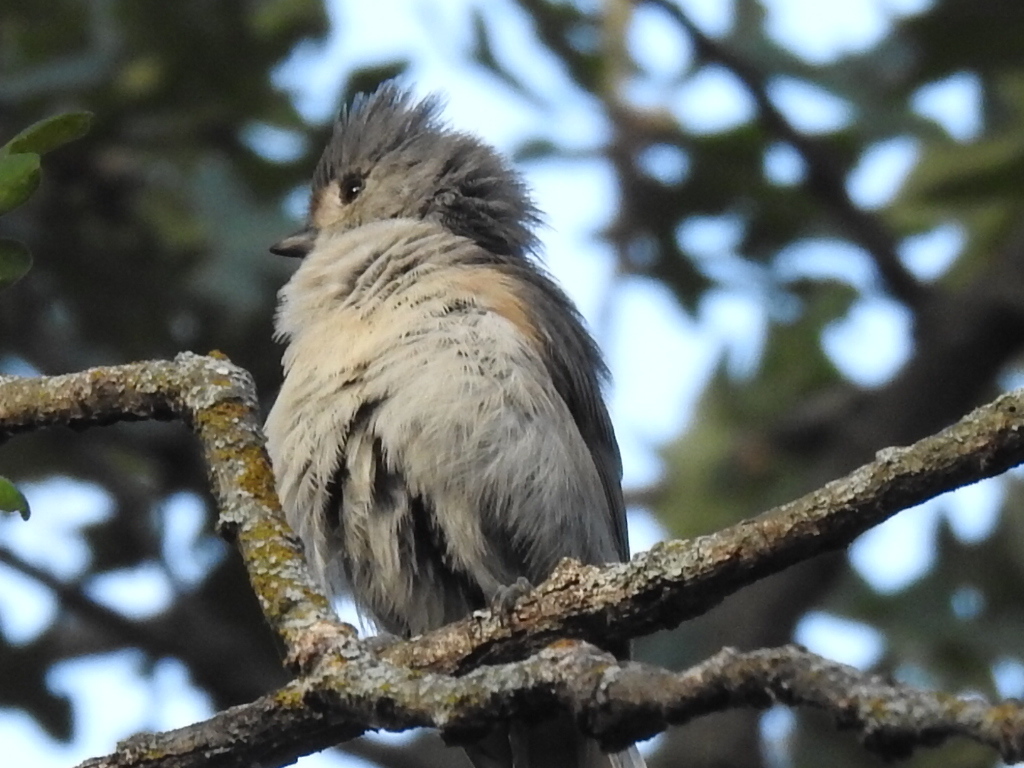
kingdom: Animalia
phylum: Chordata
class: Aves
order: Passeriformes
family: Paridae
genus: Baeolophus
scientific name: Baeolophus
